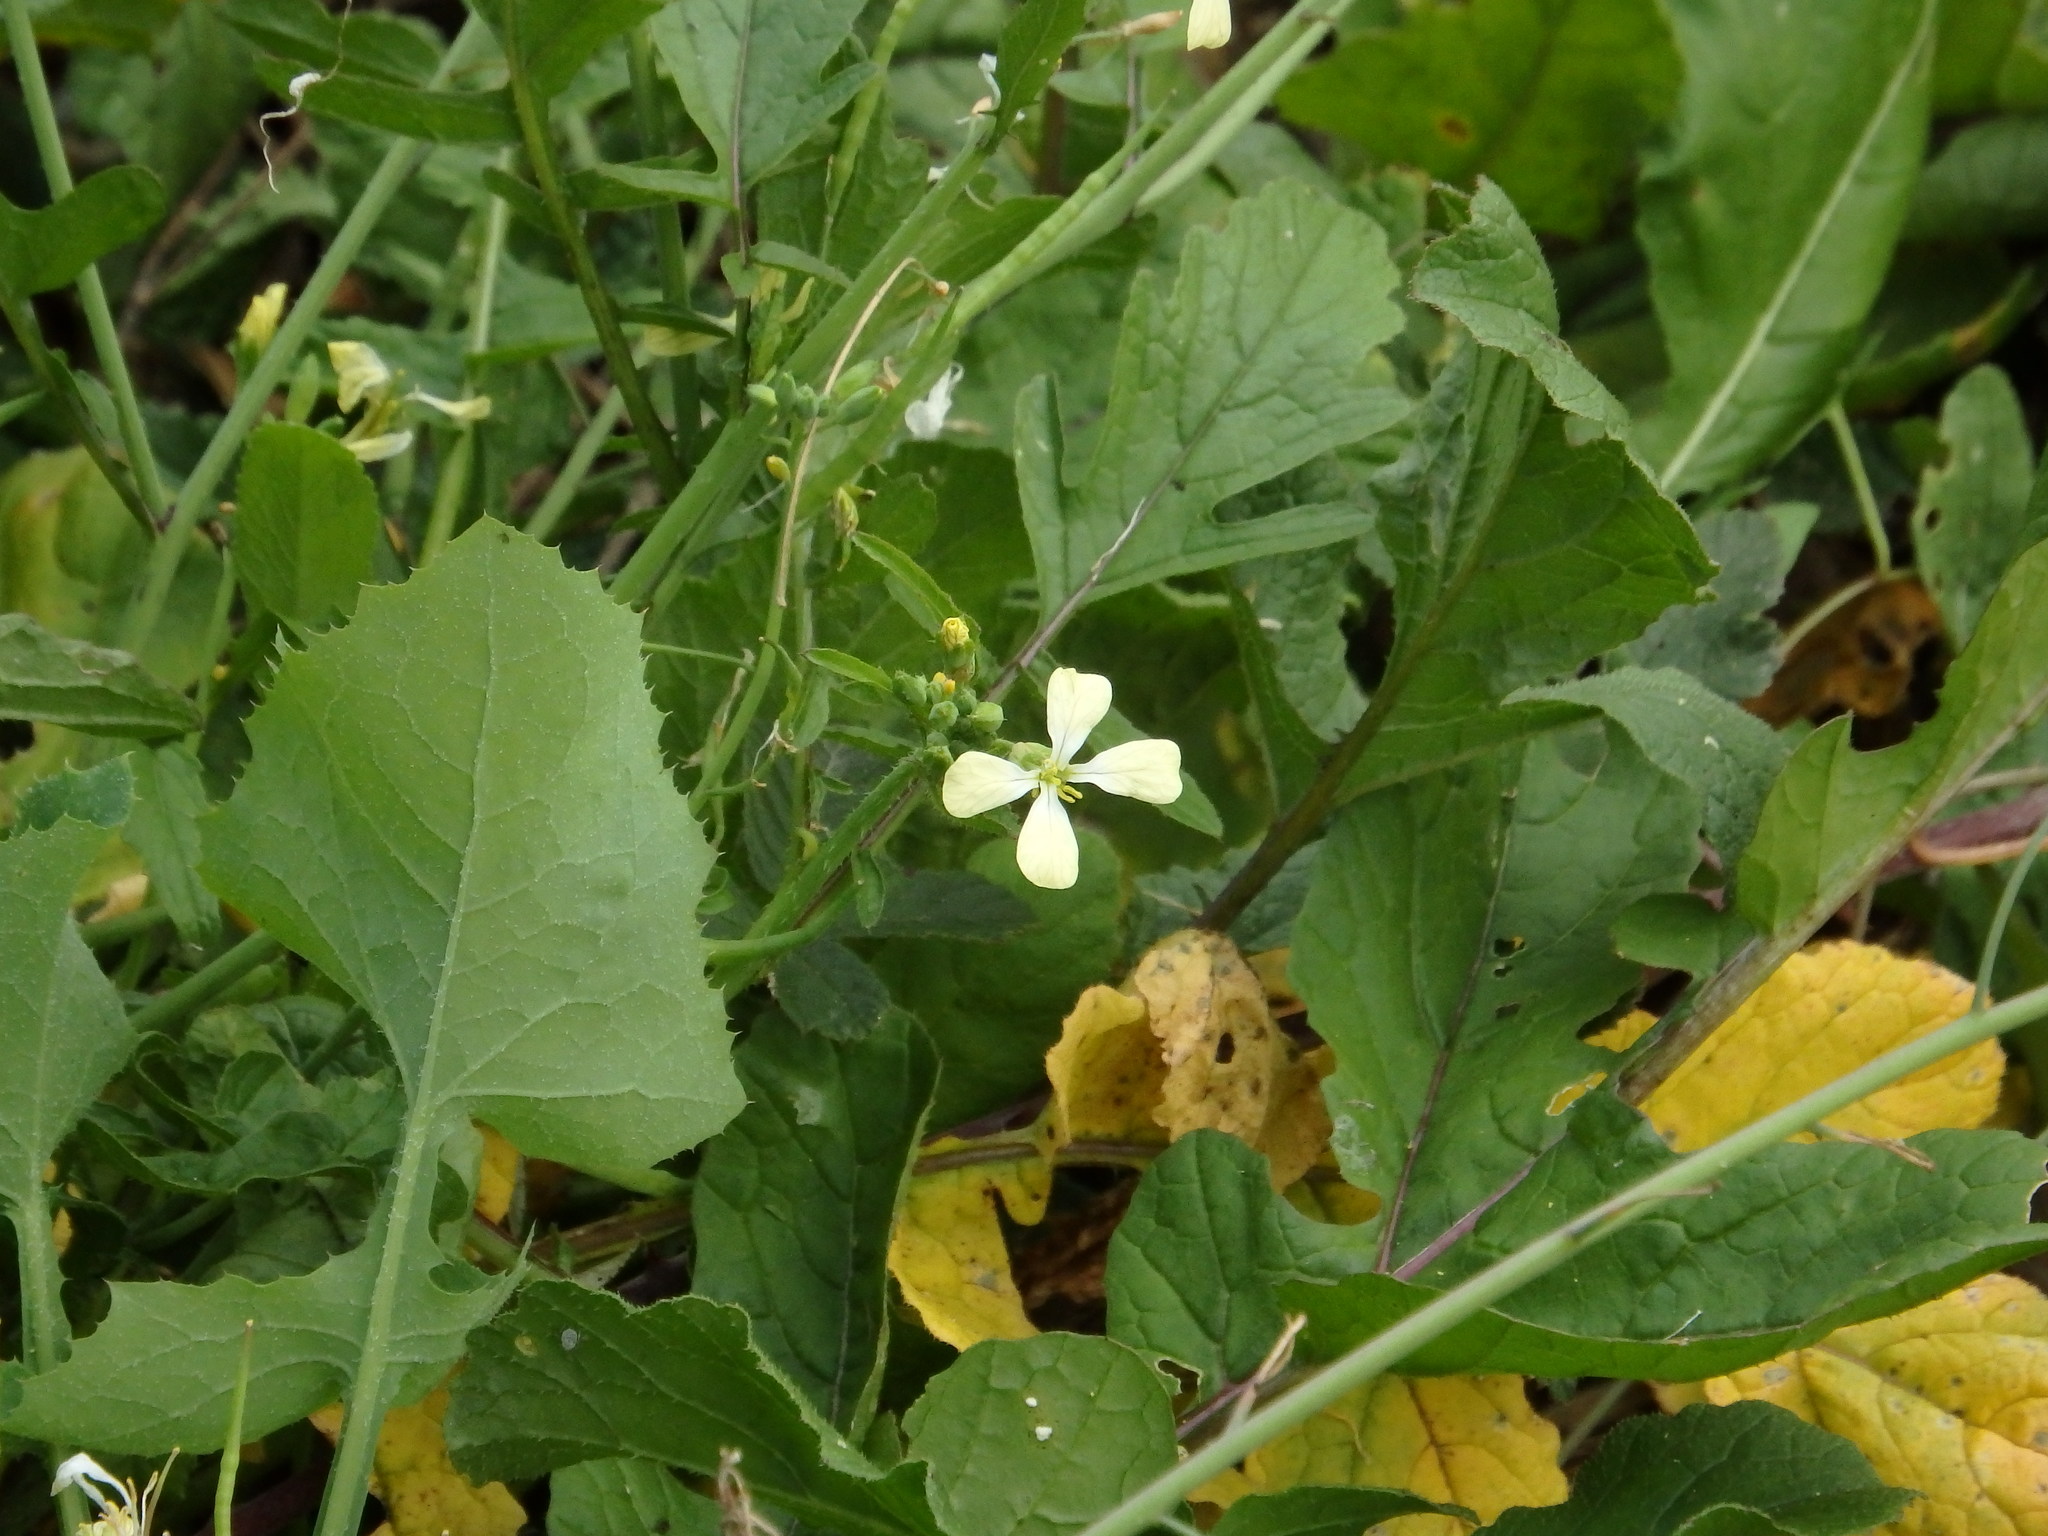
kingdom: Plantae
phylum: Tracheophyta
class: Magnoliopsida
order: Brassicales
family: Brassicaceae
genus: Raphanus
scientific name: Raphanus raphanistrum
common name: Wild radish
